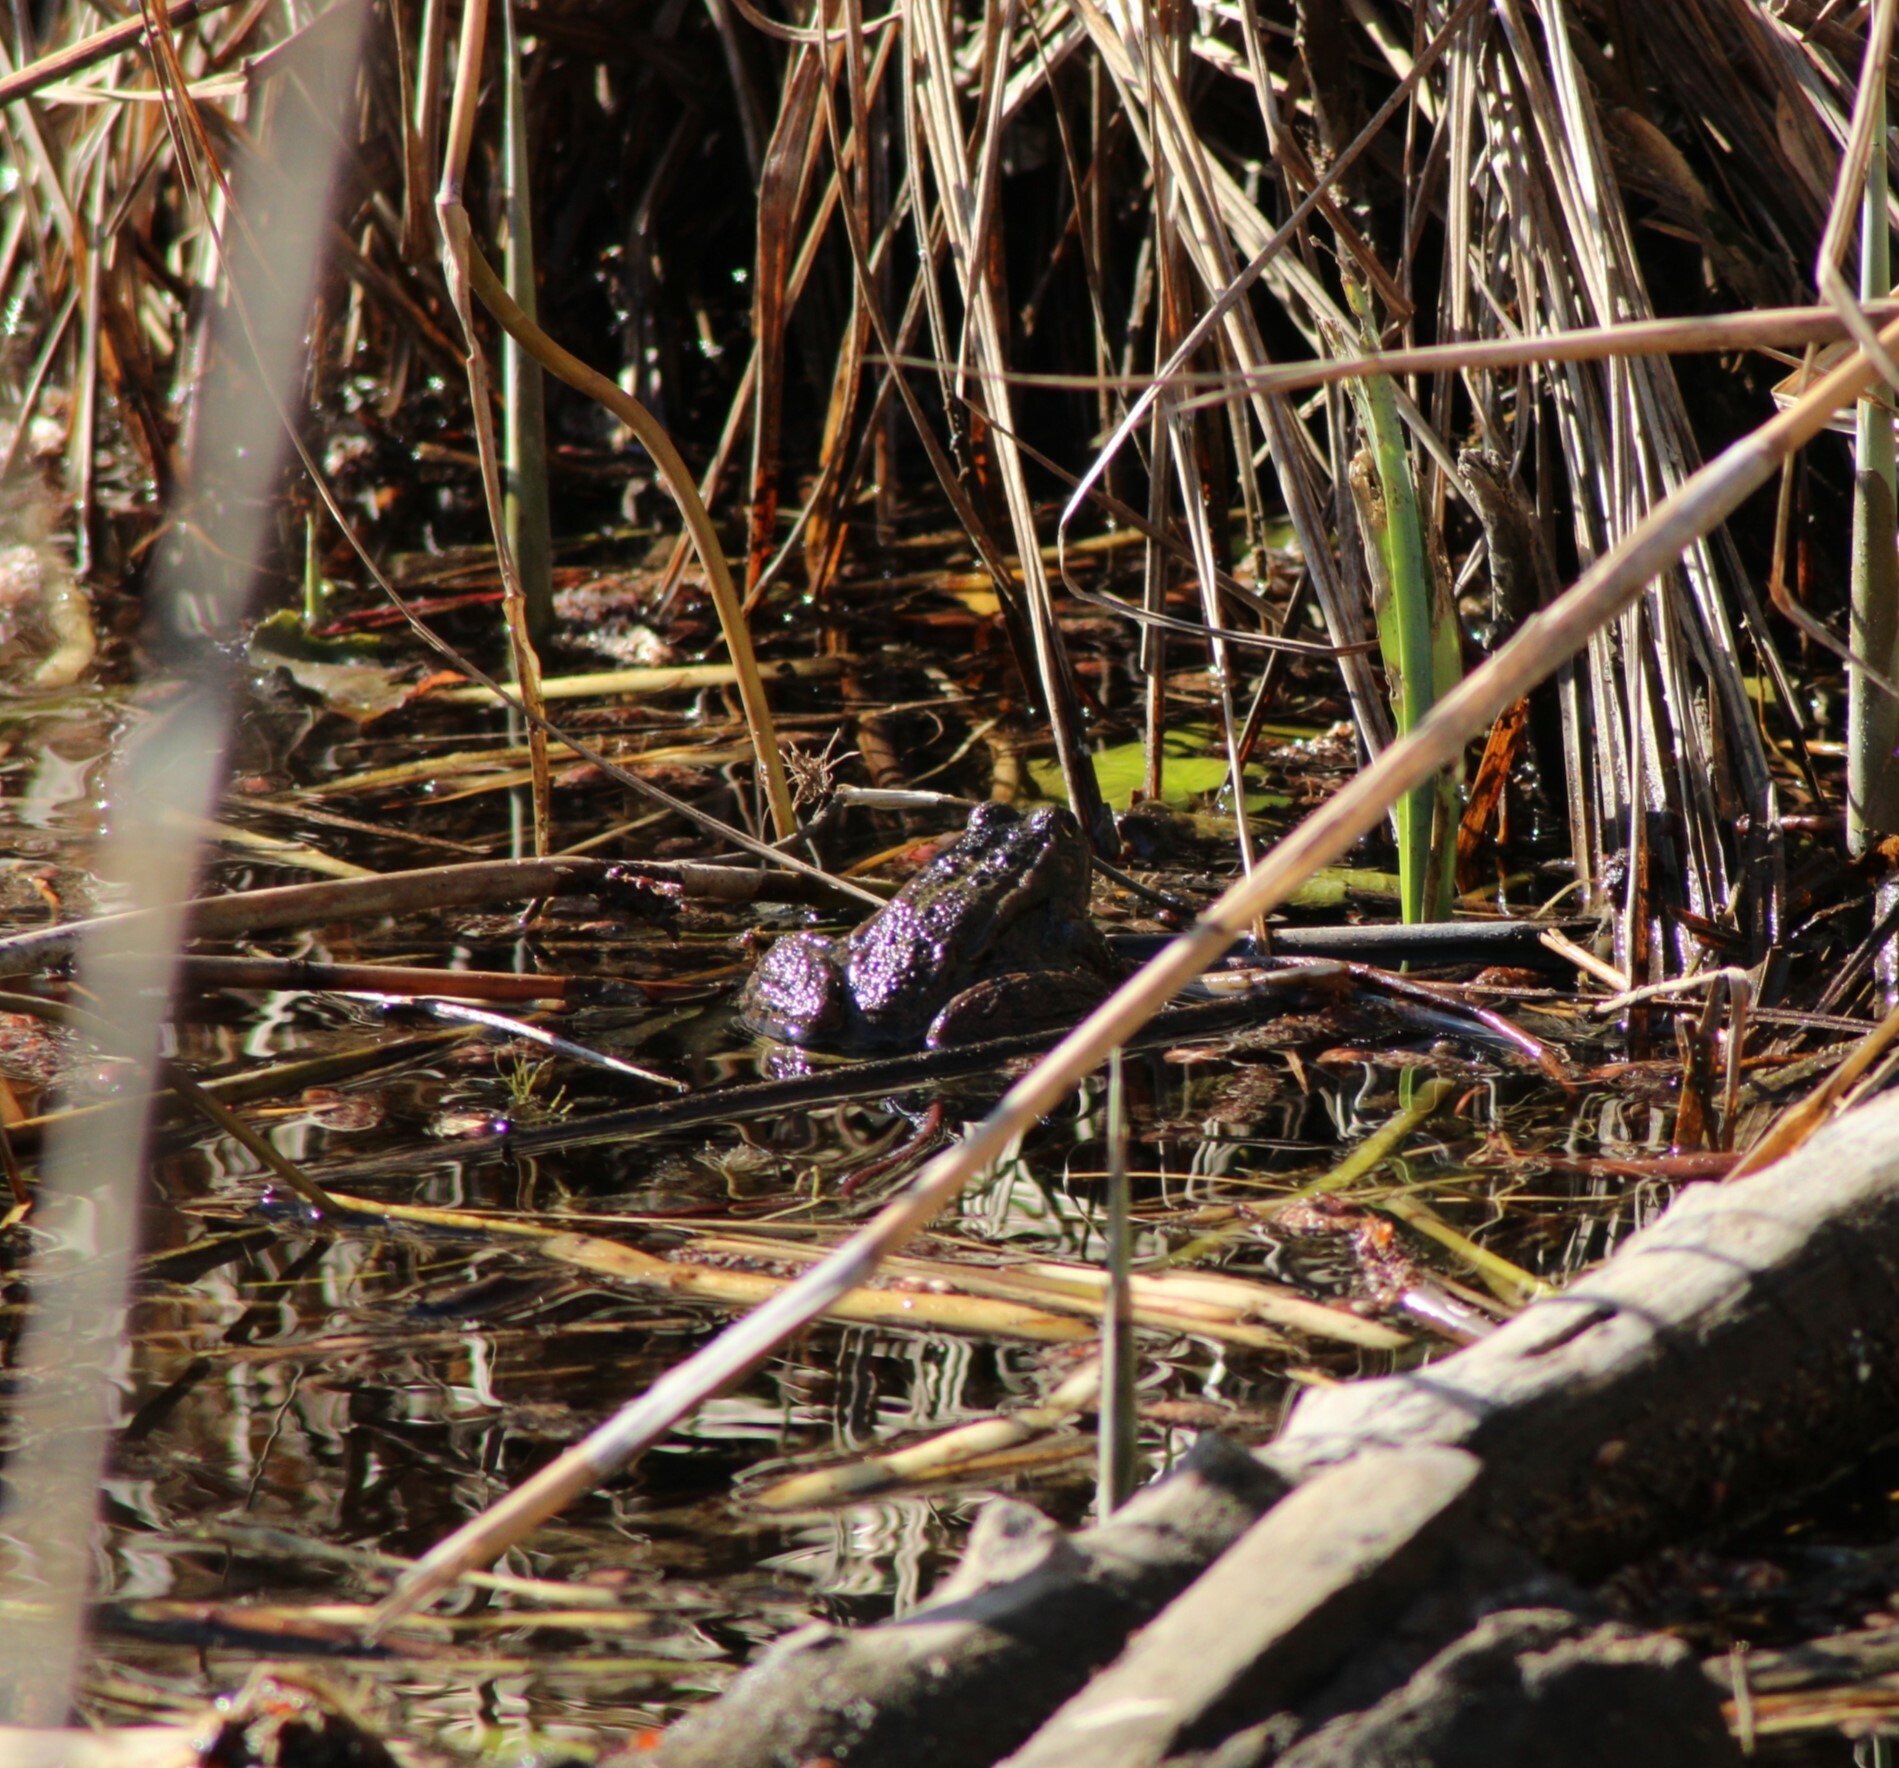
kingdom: Animalia
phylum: Chordata
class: Amphibia
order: Anura
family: Ranidae
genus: Pelophylax
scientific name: Pelophylax
